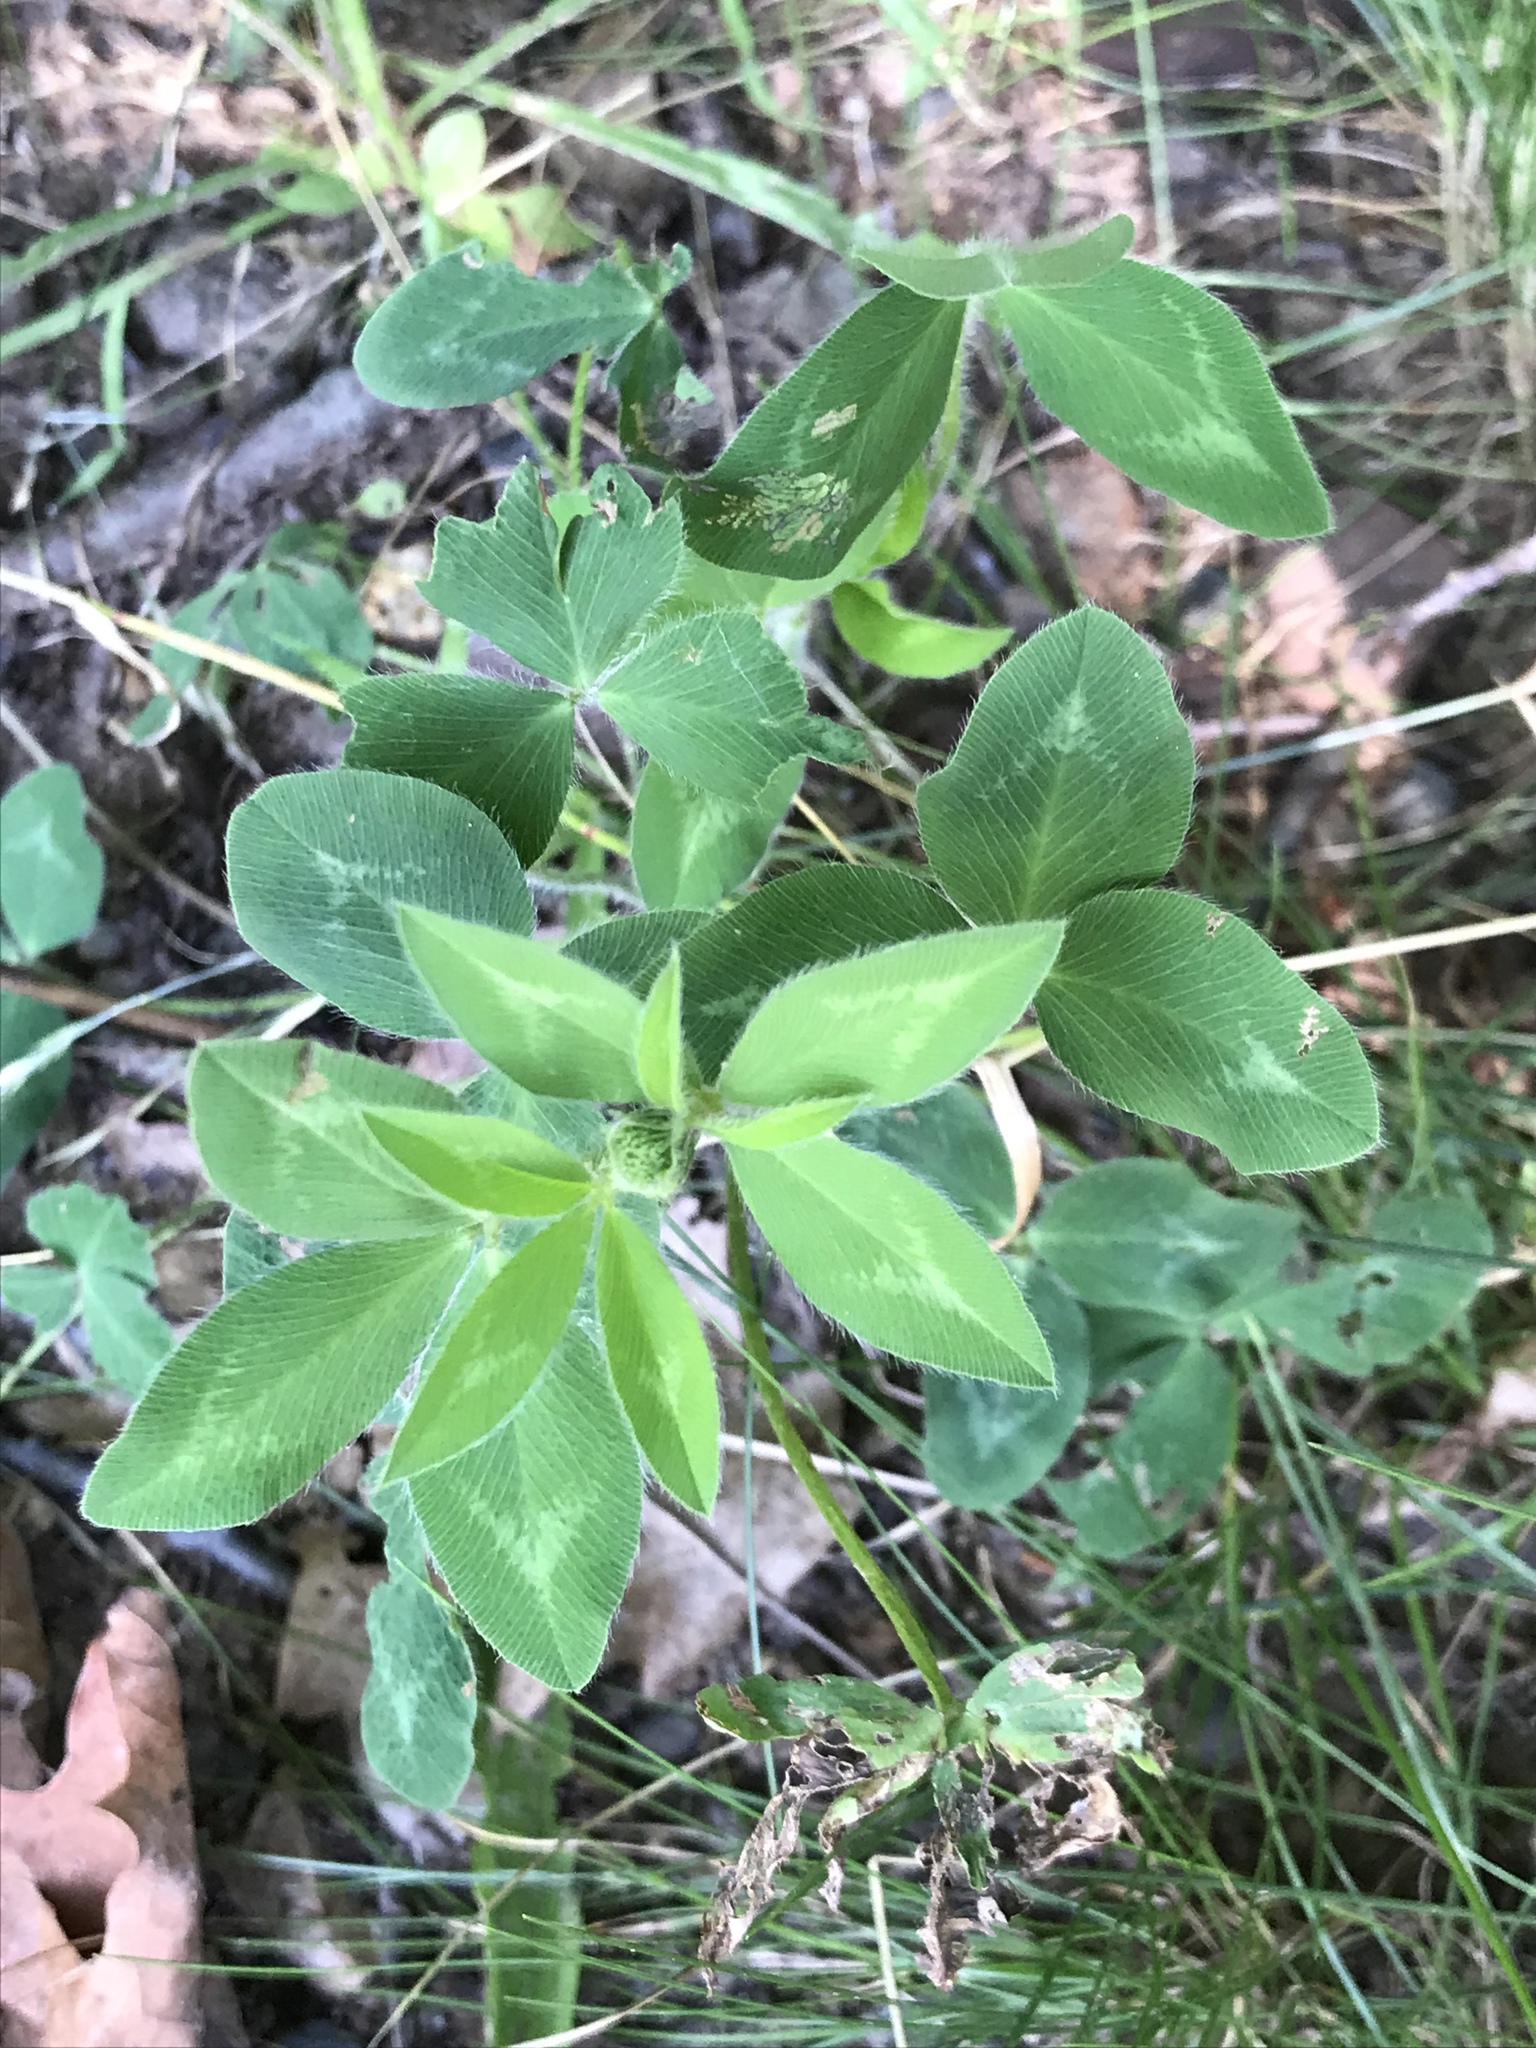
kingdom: Plantae
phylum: Tracheophyta
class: Magnoliopsida
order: Fabales
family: Fabaceae
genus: Trifolium
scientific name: Trifolium pratense
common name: Red clover
